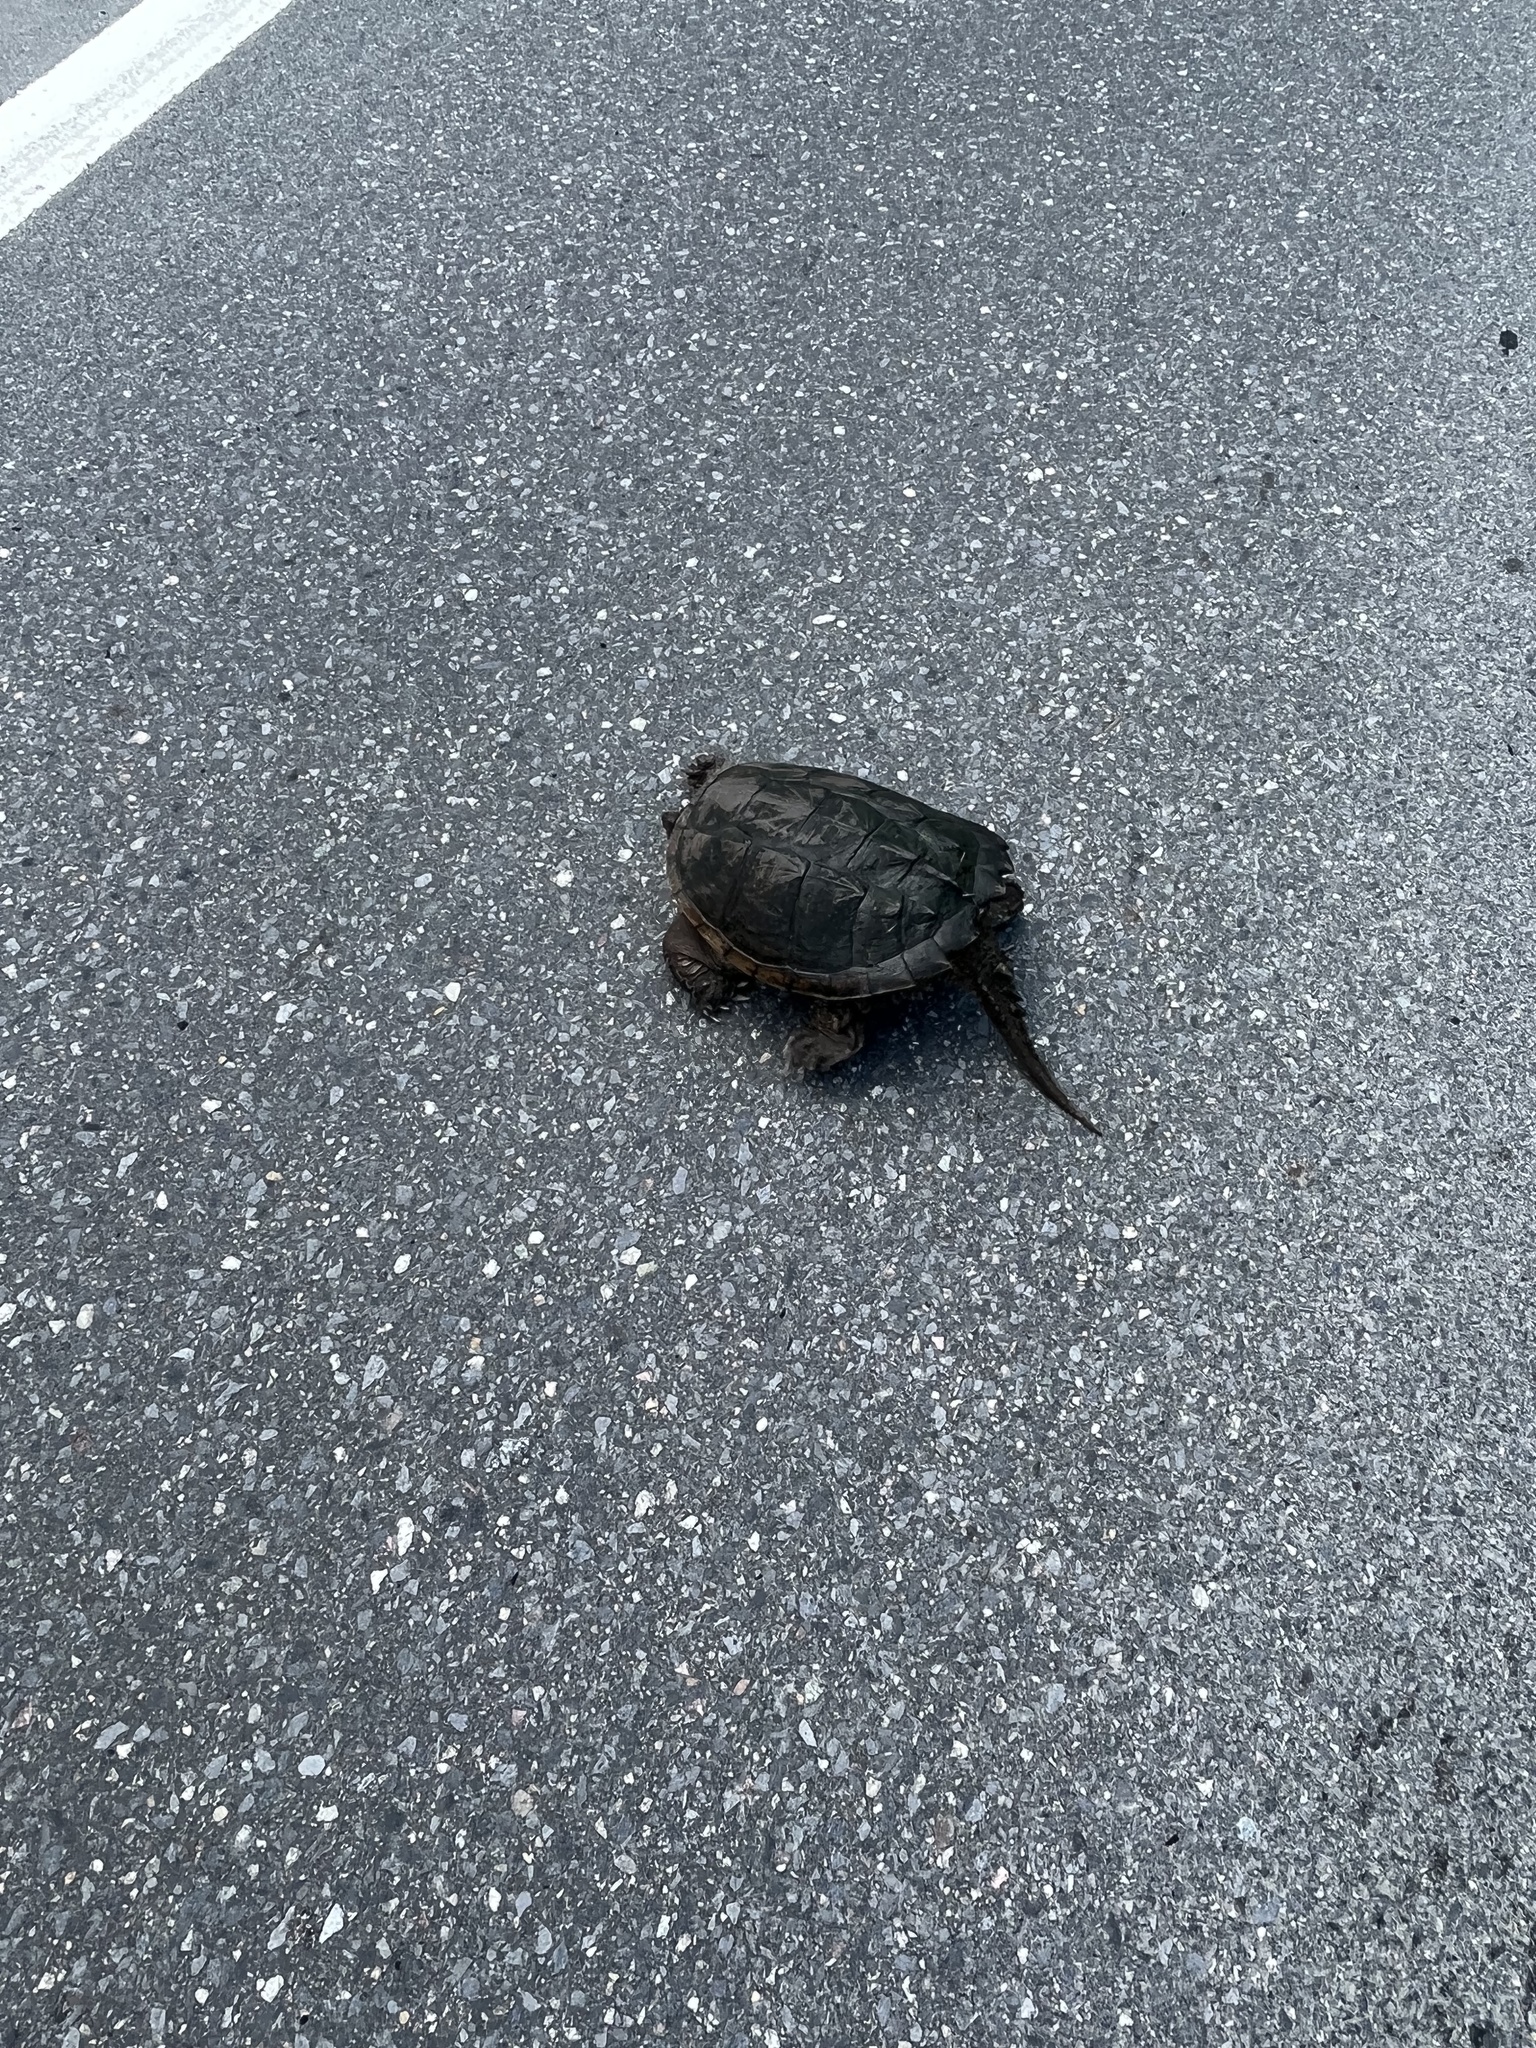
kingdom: Animalia
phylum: Chordata
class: Testudines
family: Chelydridae
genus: Chelydra
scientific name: Chelydra serpentina
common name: Common snapping turtle
